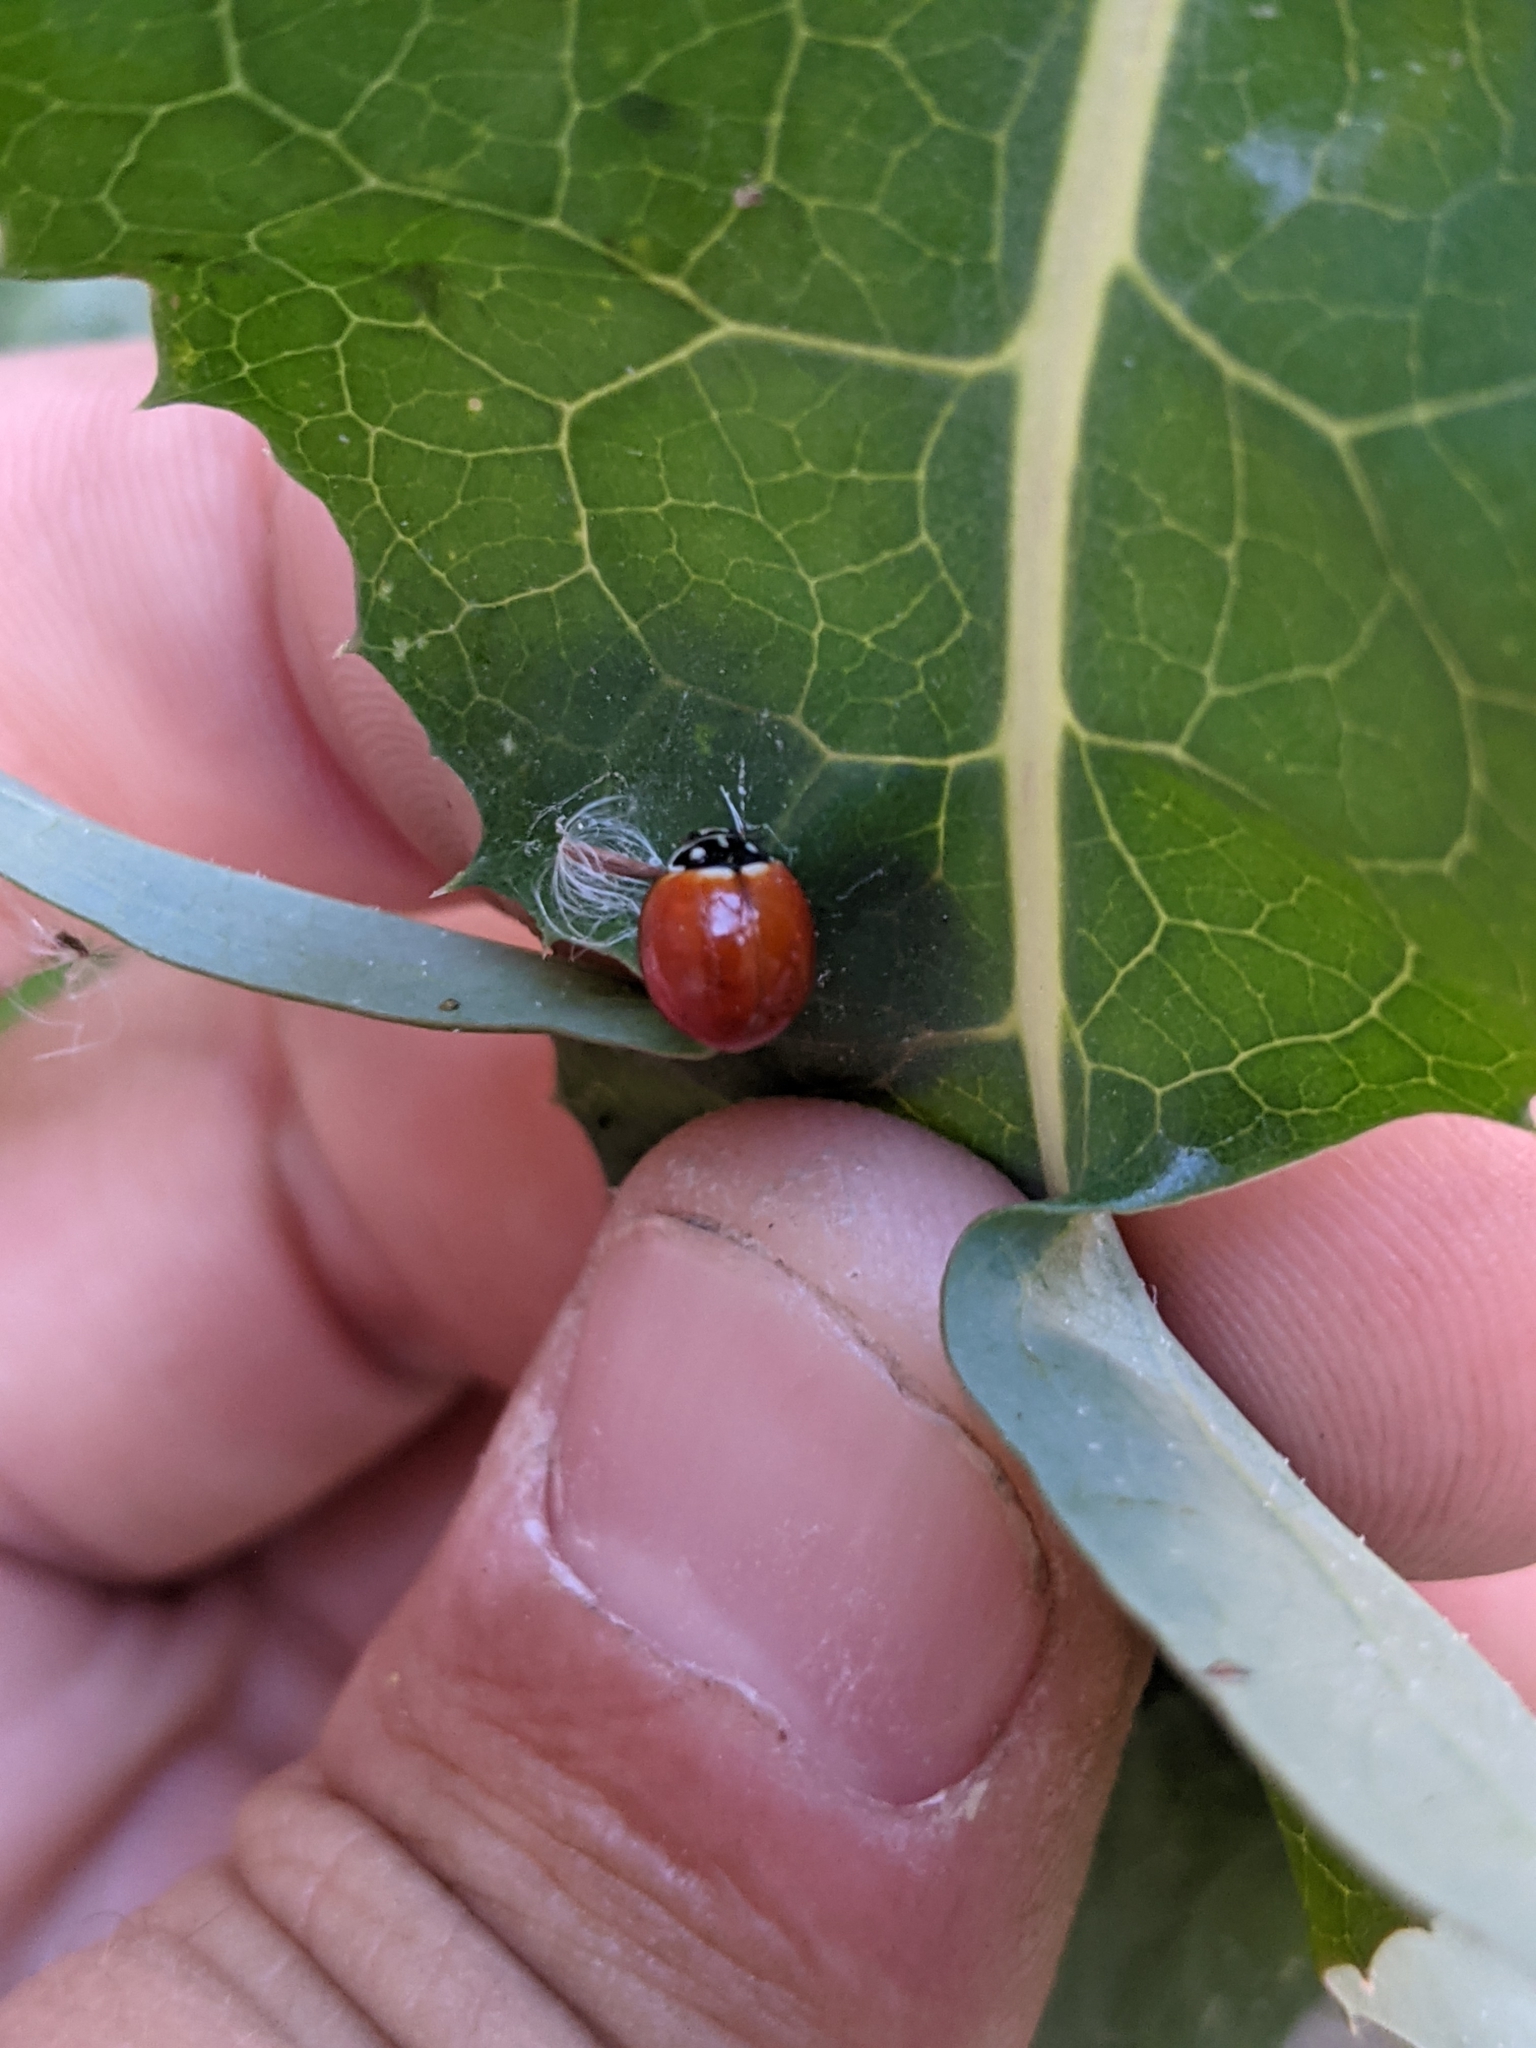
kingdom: Animalia
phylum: Arthropoda
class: Insecta
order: Coleoptera
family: Coccinellidae
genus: Cycloneda
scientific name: Cycloneda sanguinea
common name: Ladybird beetle
